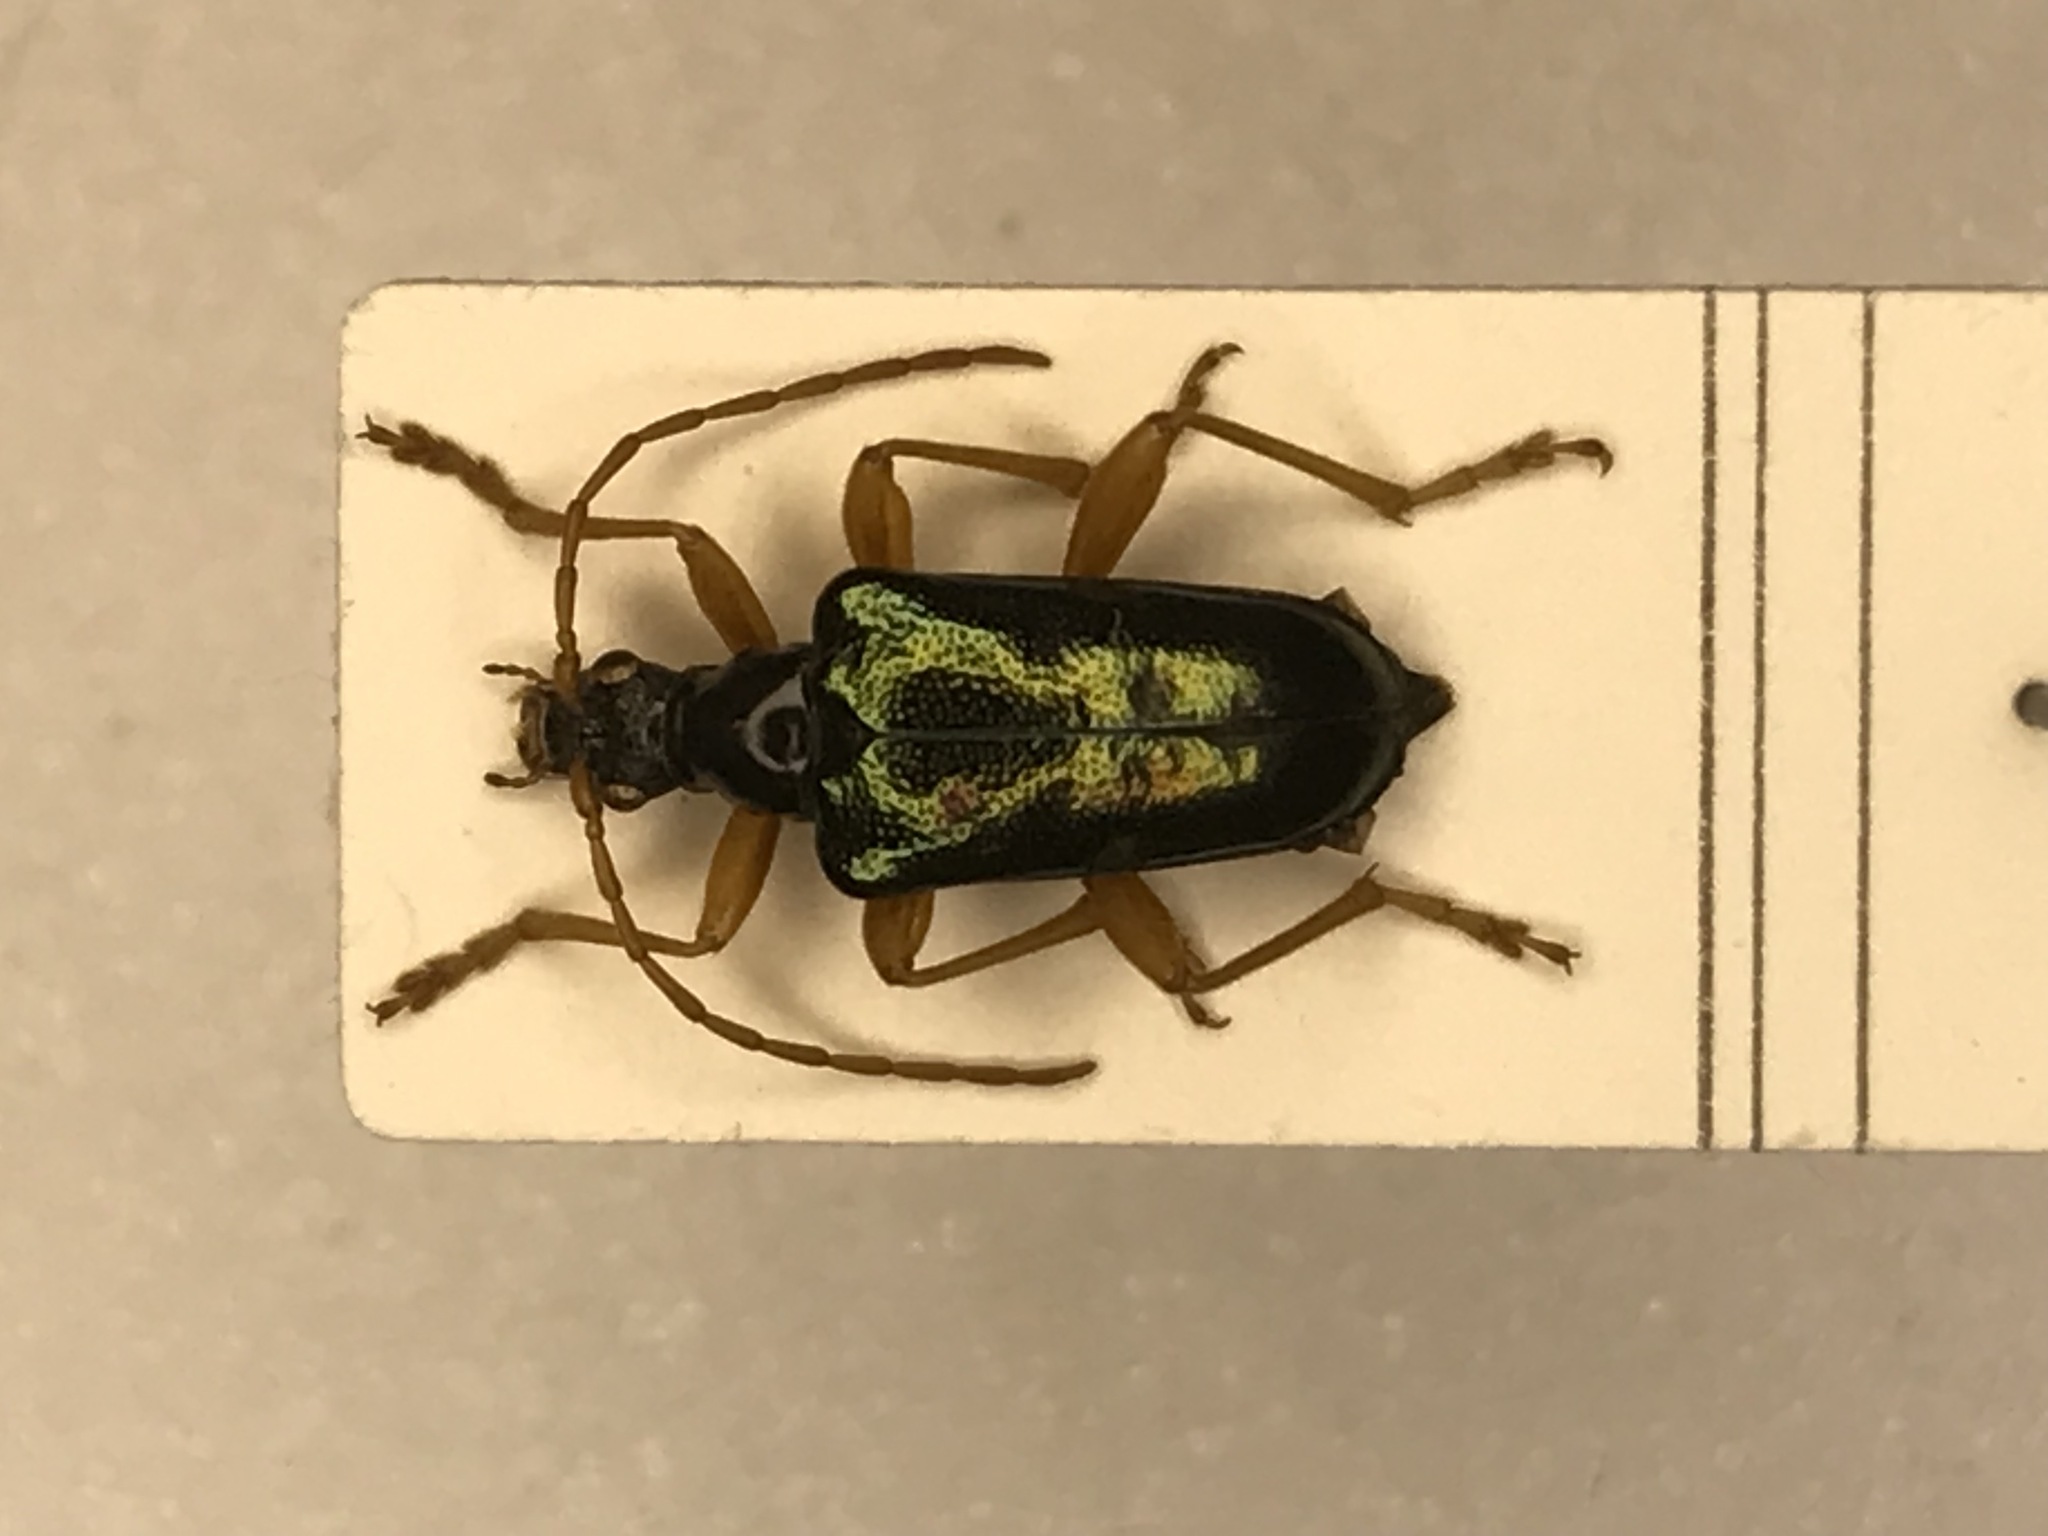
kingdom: Animalia
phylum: Arthropoda
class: Insecta
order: Coleoptera
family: Cerambycidae
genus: Gaurotes
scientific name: Gaurotes cyanipennis
